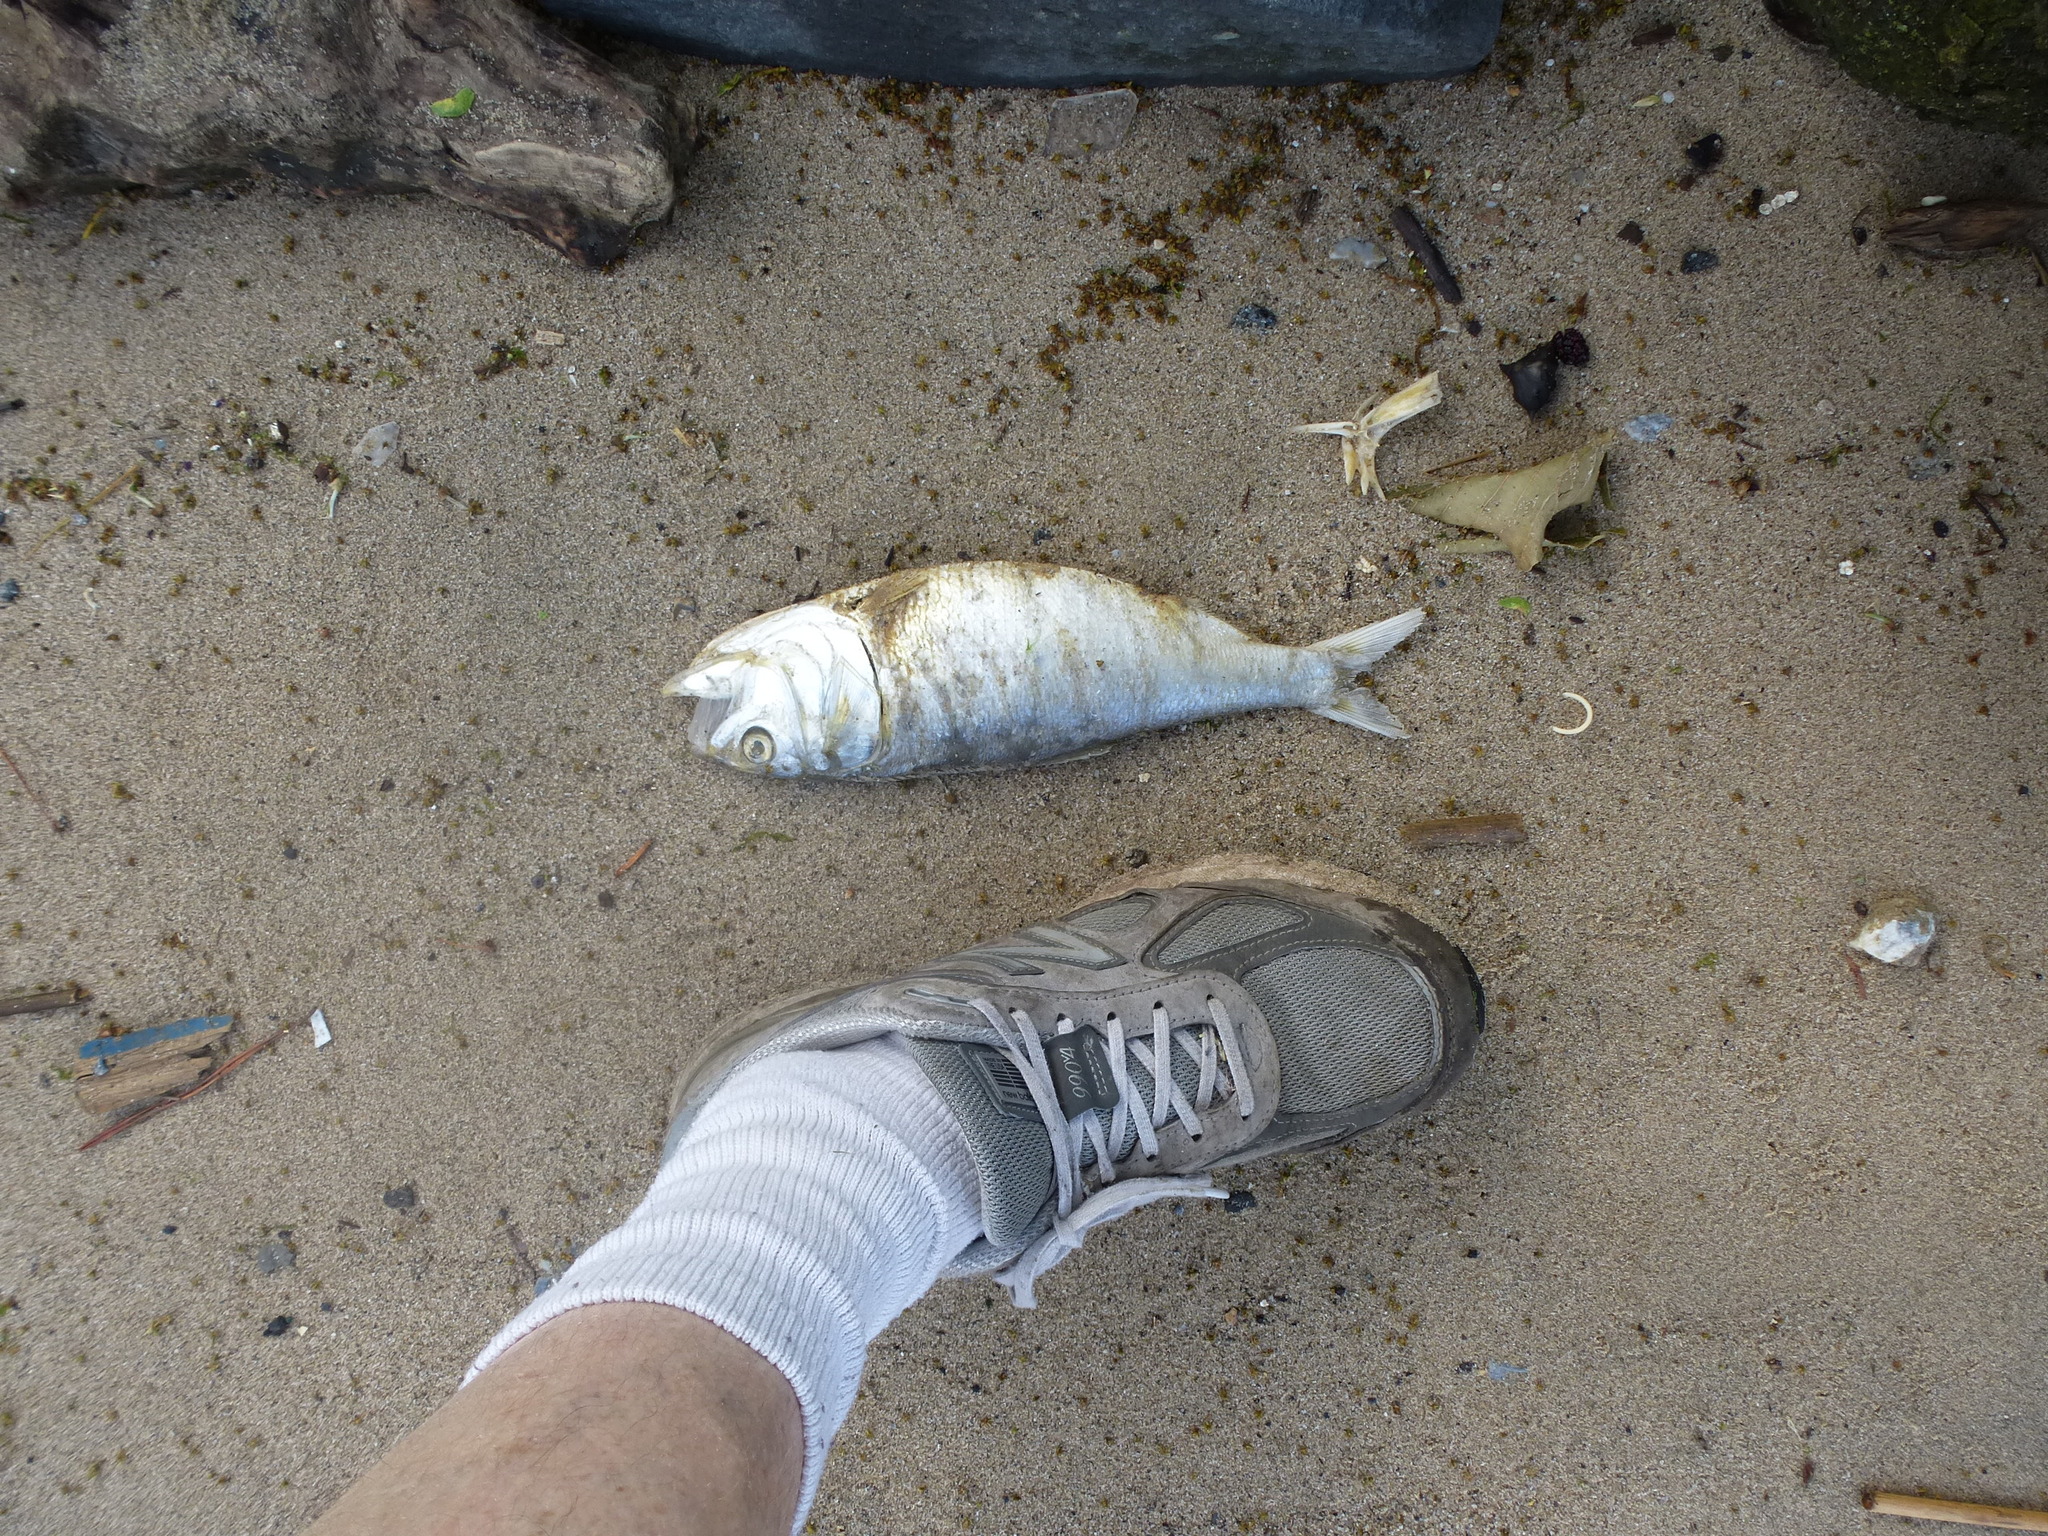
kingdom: Animalia
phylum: Chordata
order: Clupeiformes
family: Clupeidae
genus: Brevoortia
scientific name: Brevoortia tyrannus
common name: Atlantic menhaden
